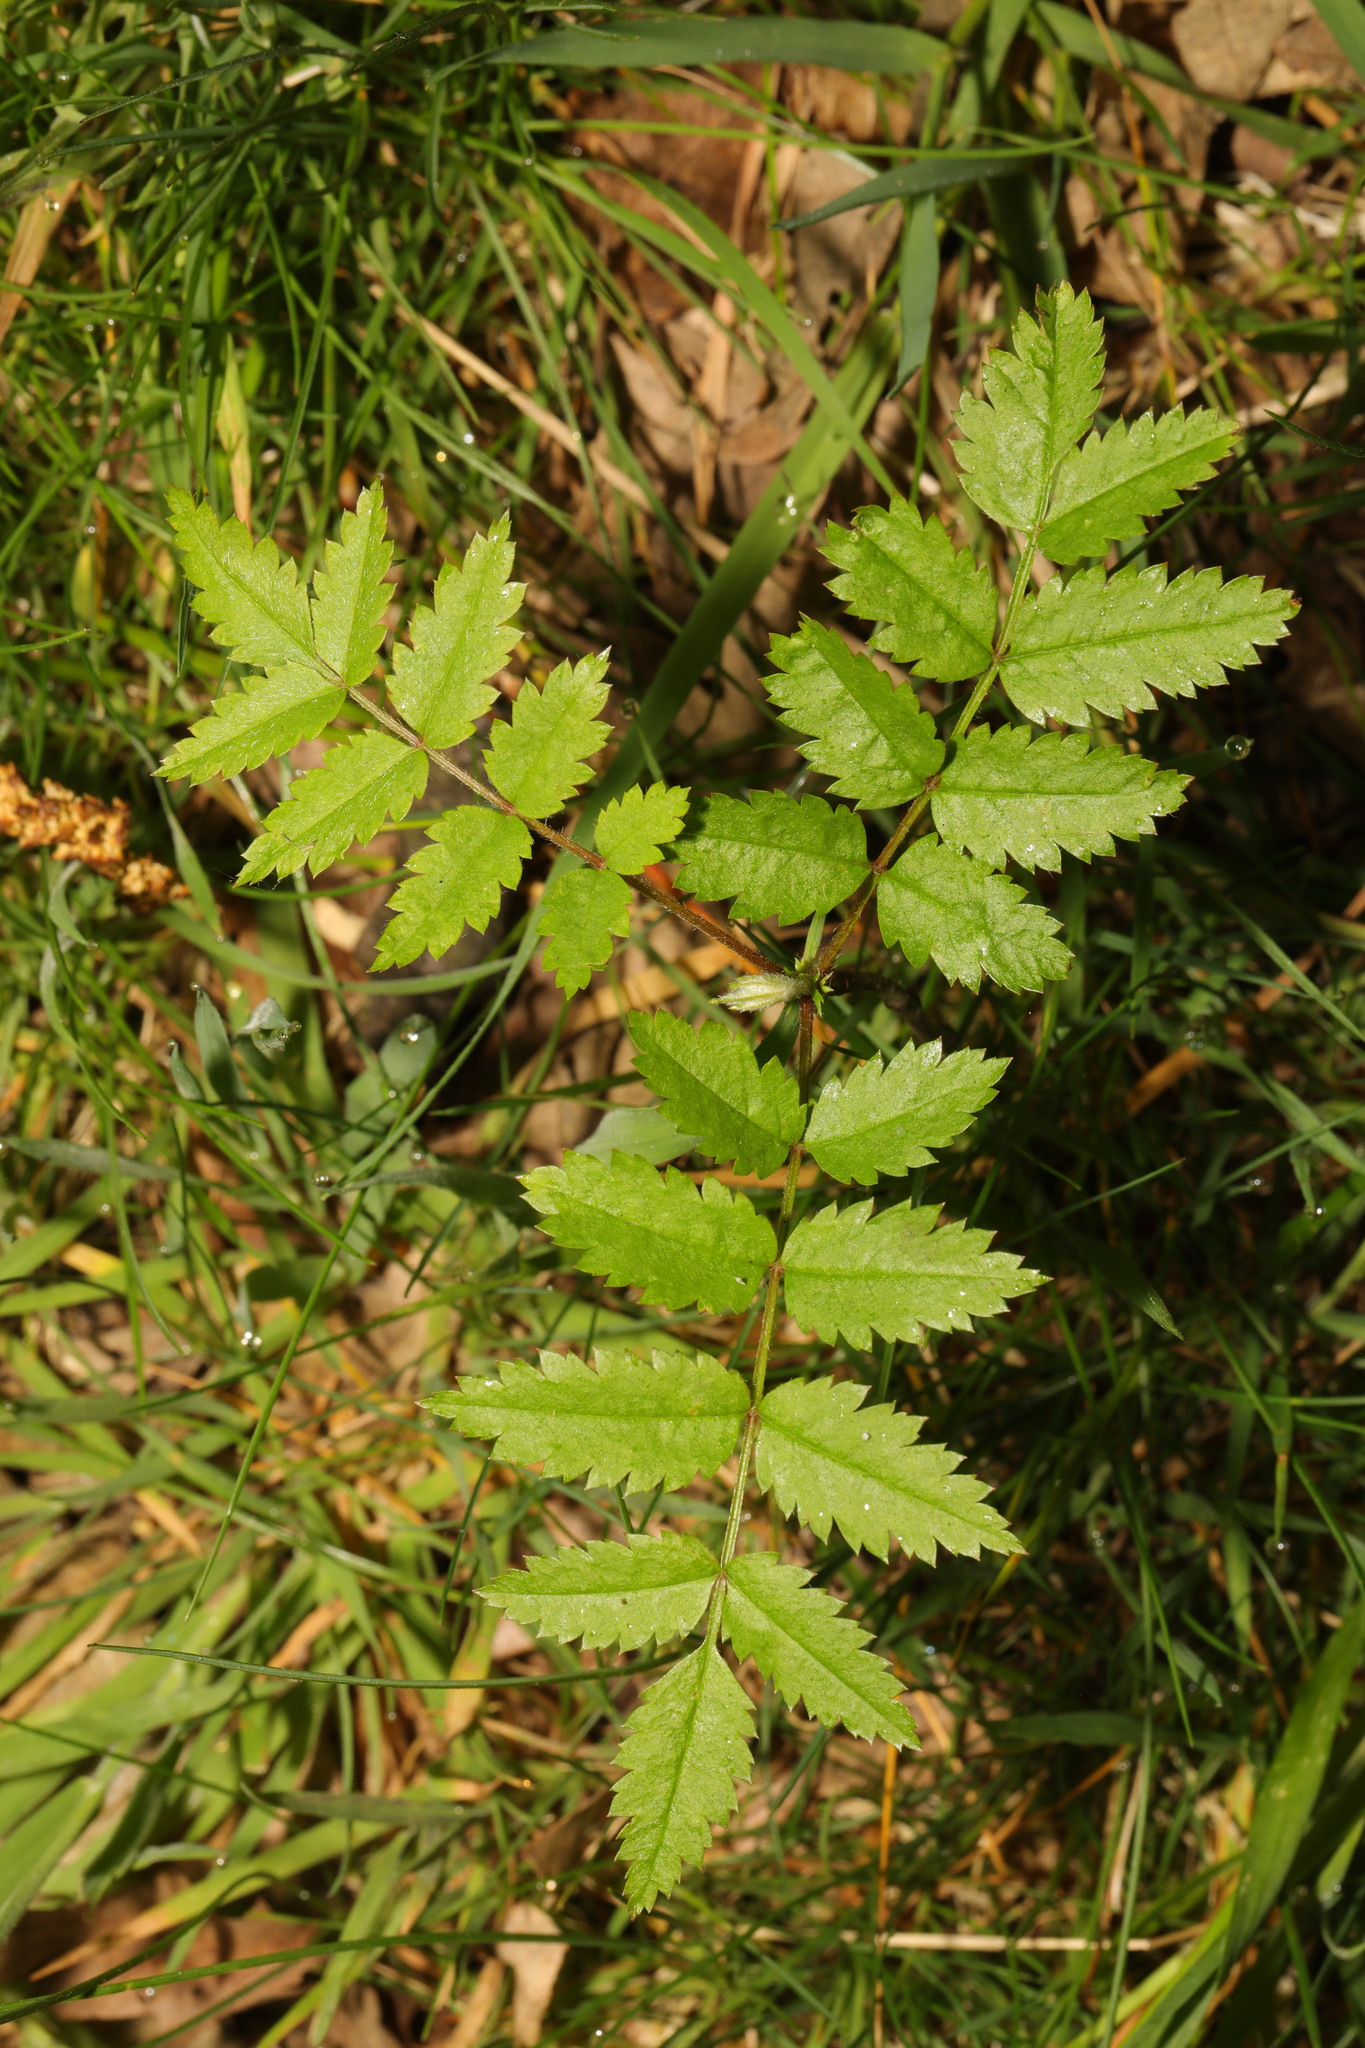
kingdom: Plantae
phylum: Tracheophyta
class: Magnoliopsida
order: Rosales
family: Rosaceae
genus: Sorbus
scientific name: Sorbus aucuparia
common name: Rowan
